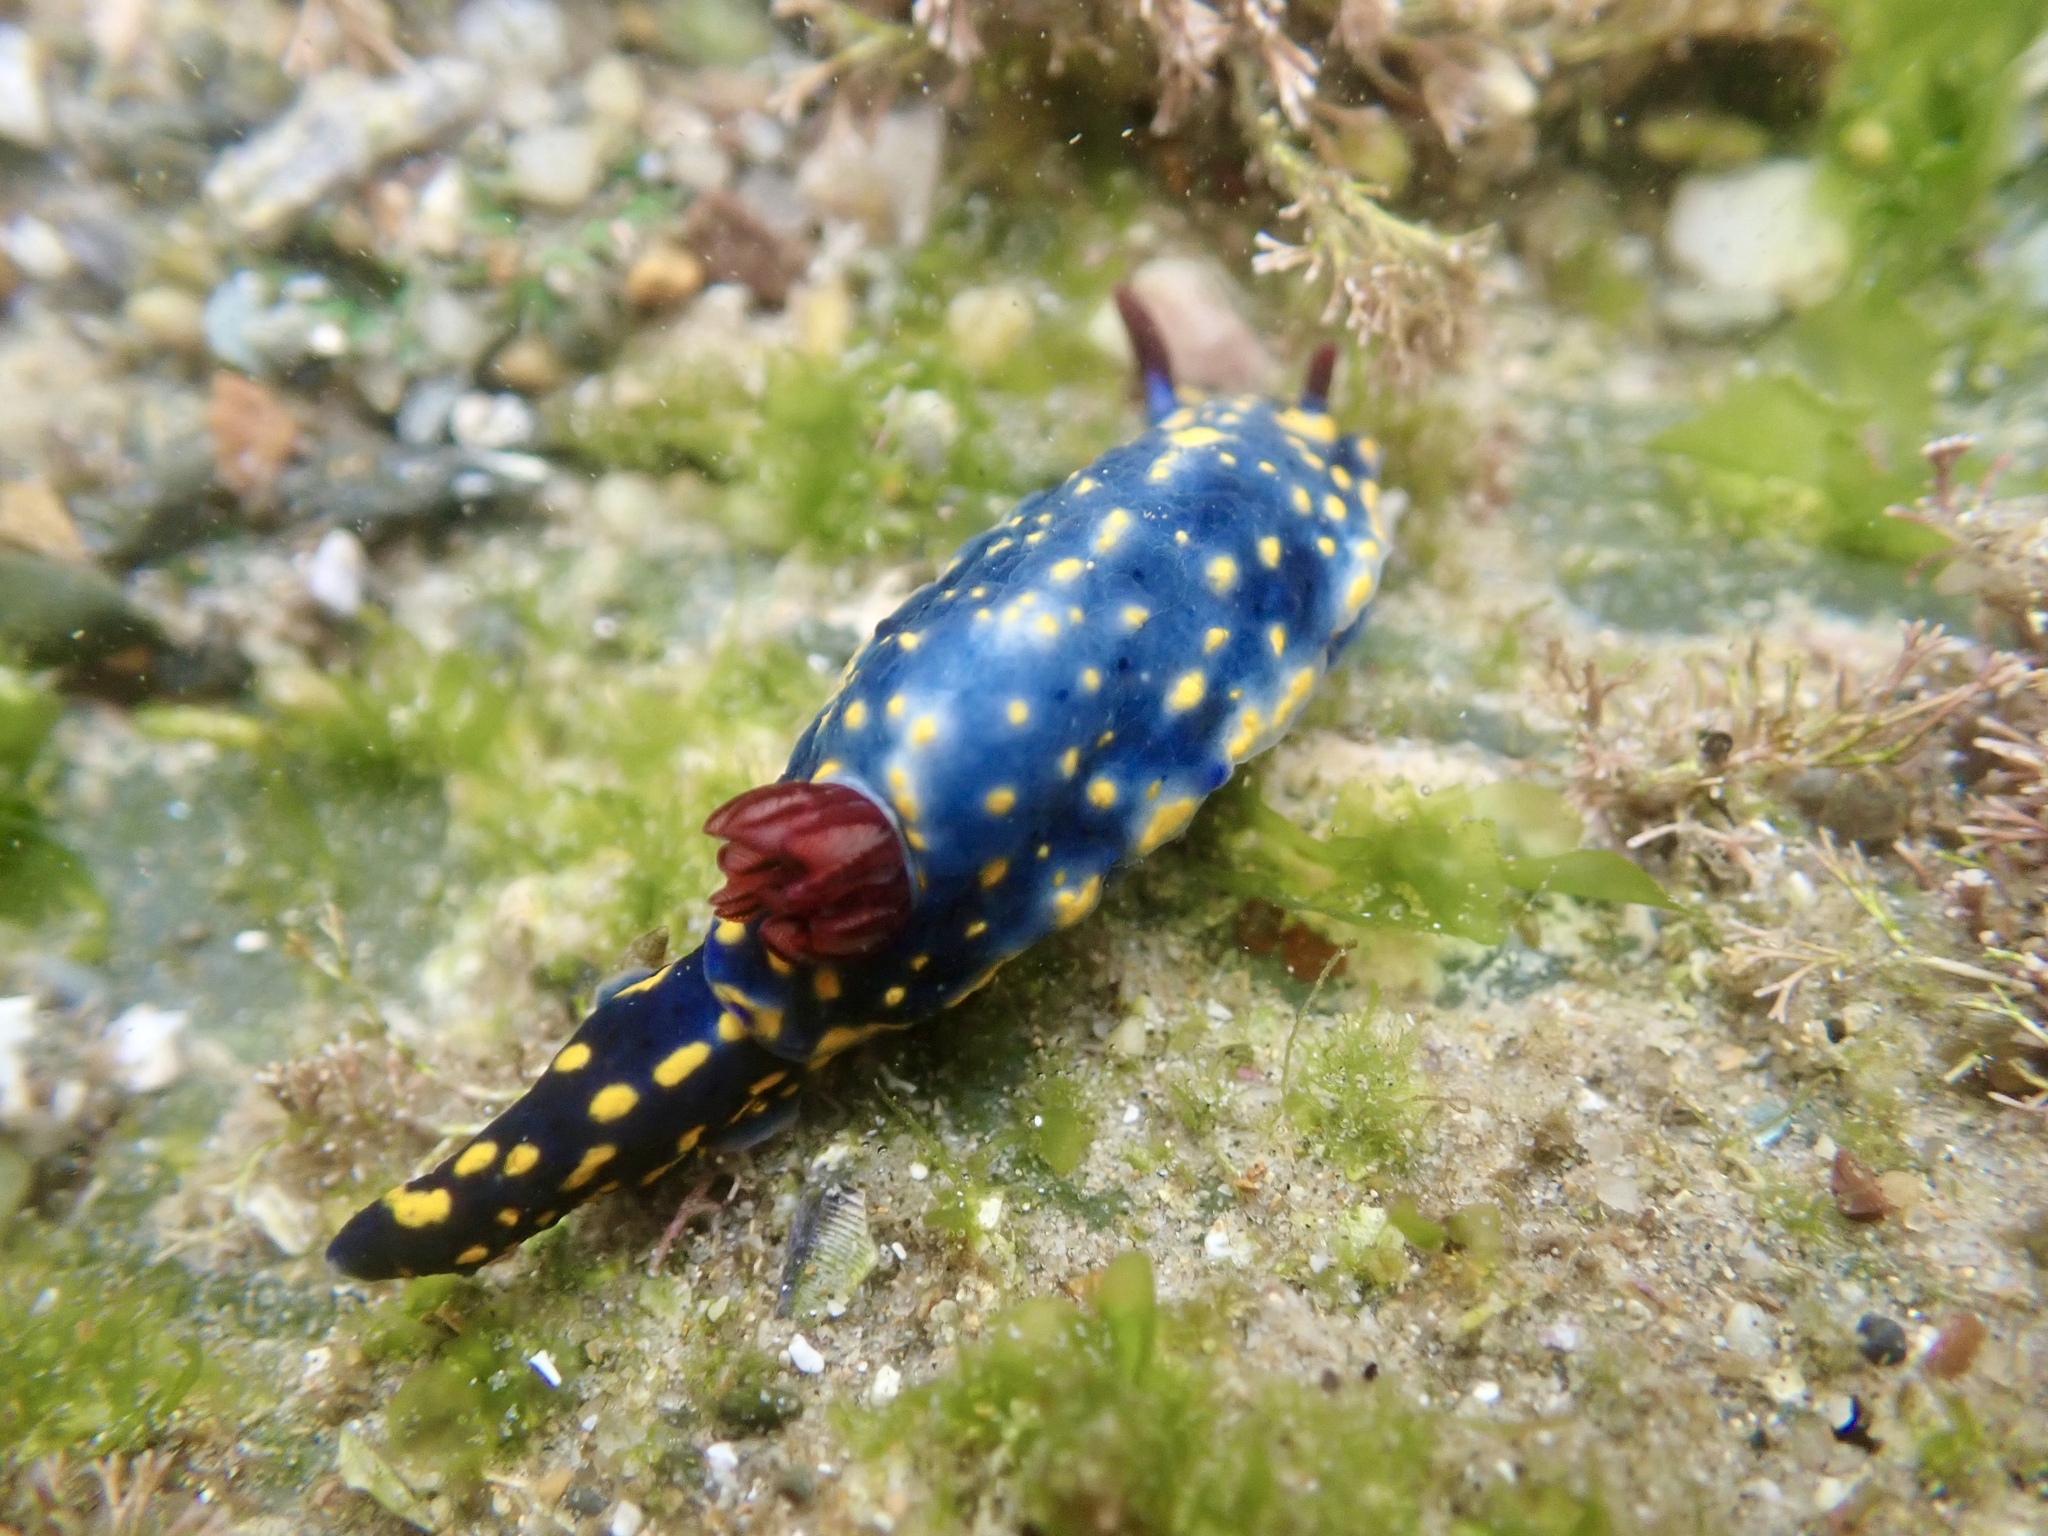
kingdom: Animalia
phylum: Mollusca
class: Gastropoda
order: Nudibranchia
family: Chromodorididae
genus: Hypselodoris
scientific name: Hypselodoris obscura
